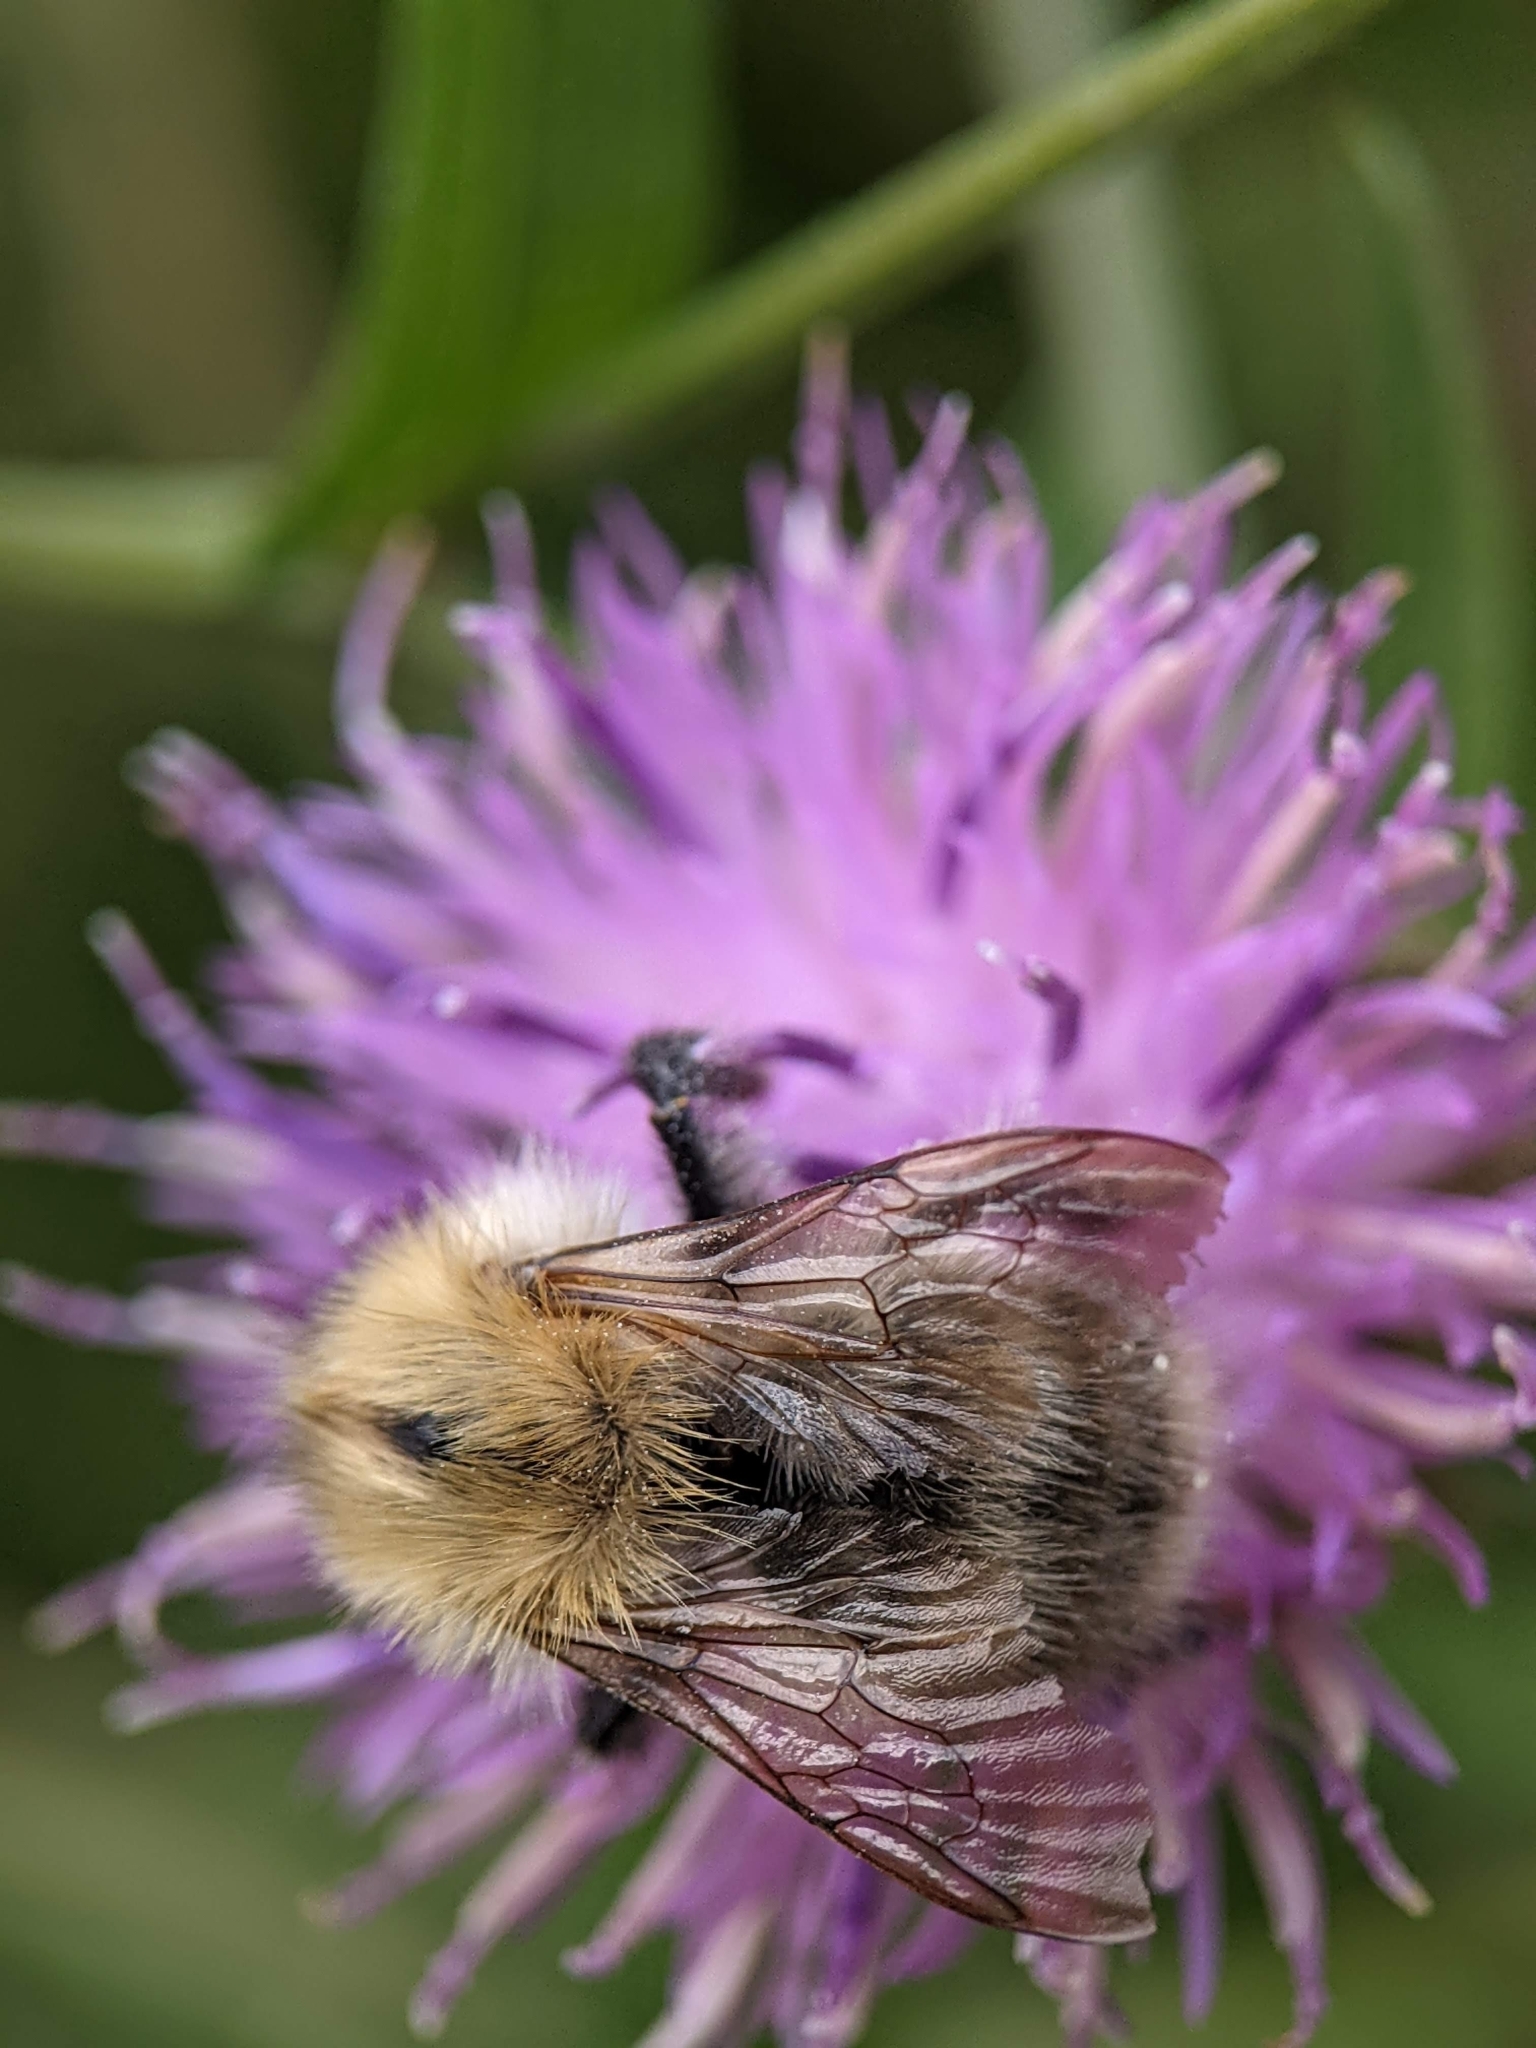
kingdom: Animalia
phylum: Arthropoda
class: Insecta
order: Hymenoptera
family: Apidae
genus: Bombus
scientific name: Bombus pascuorum
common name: Common carder bee
